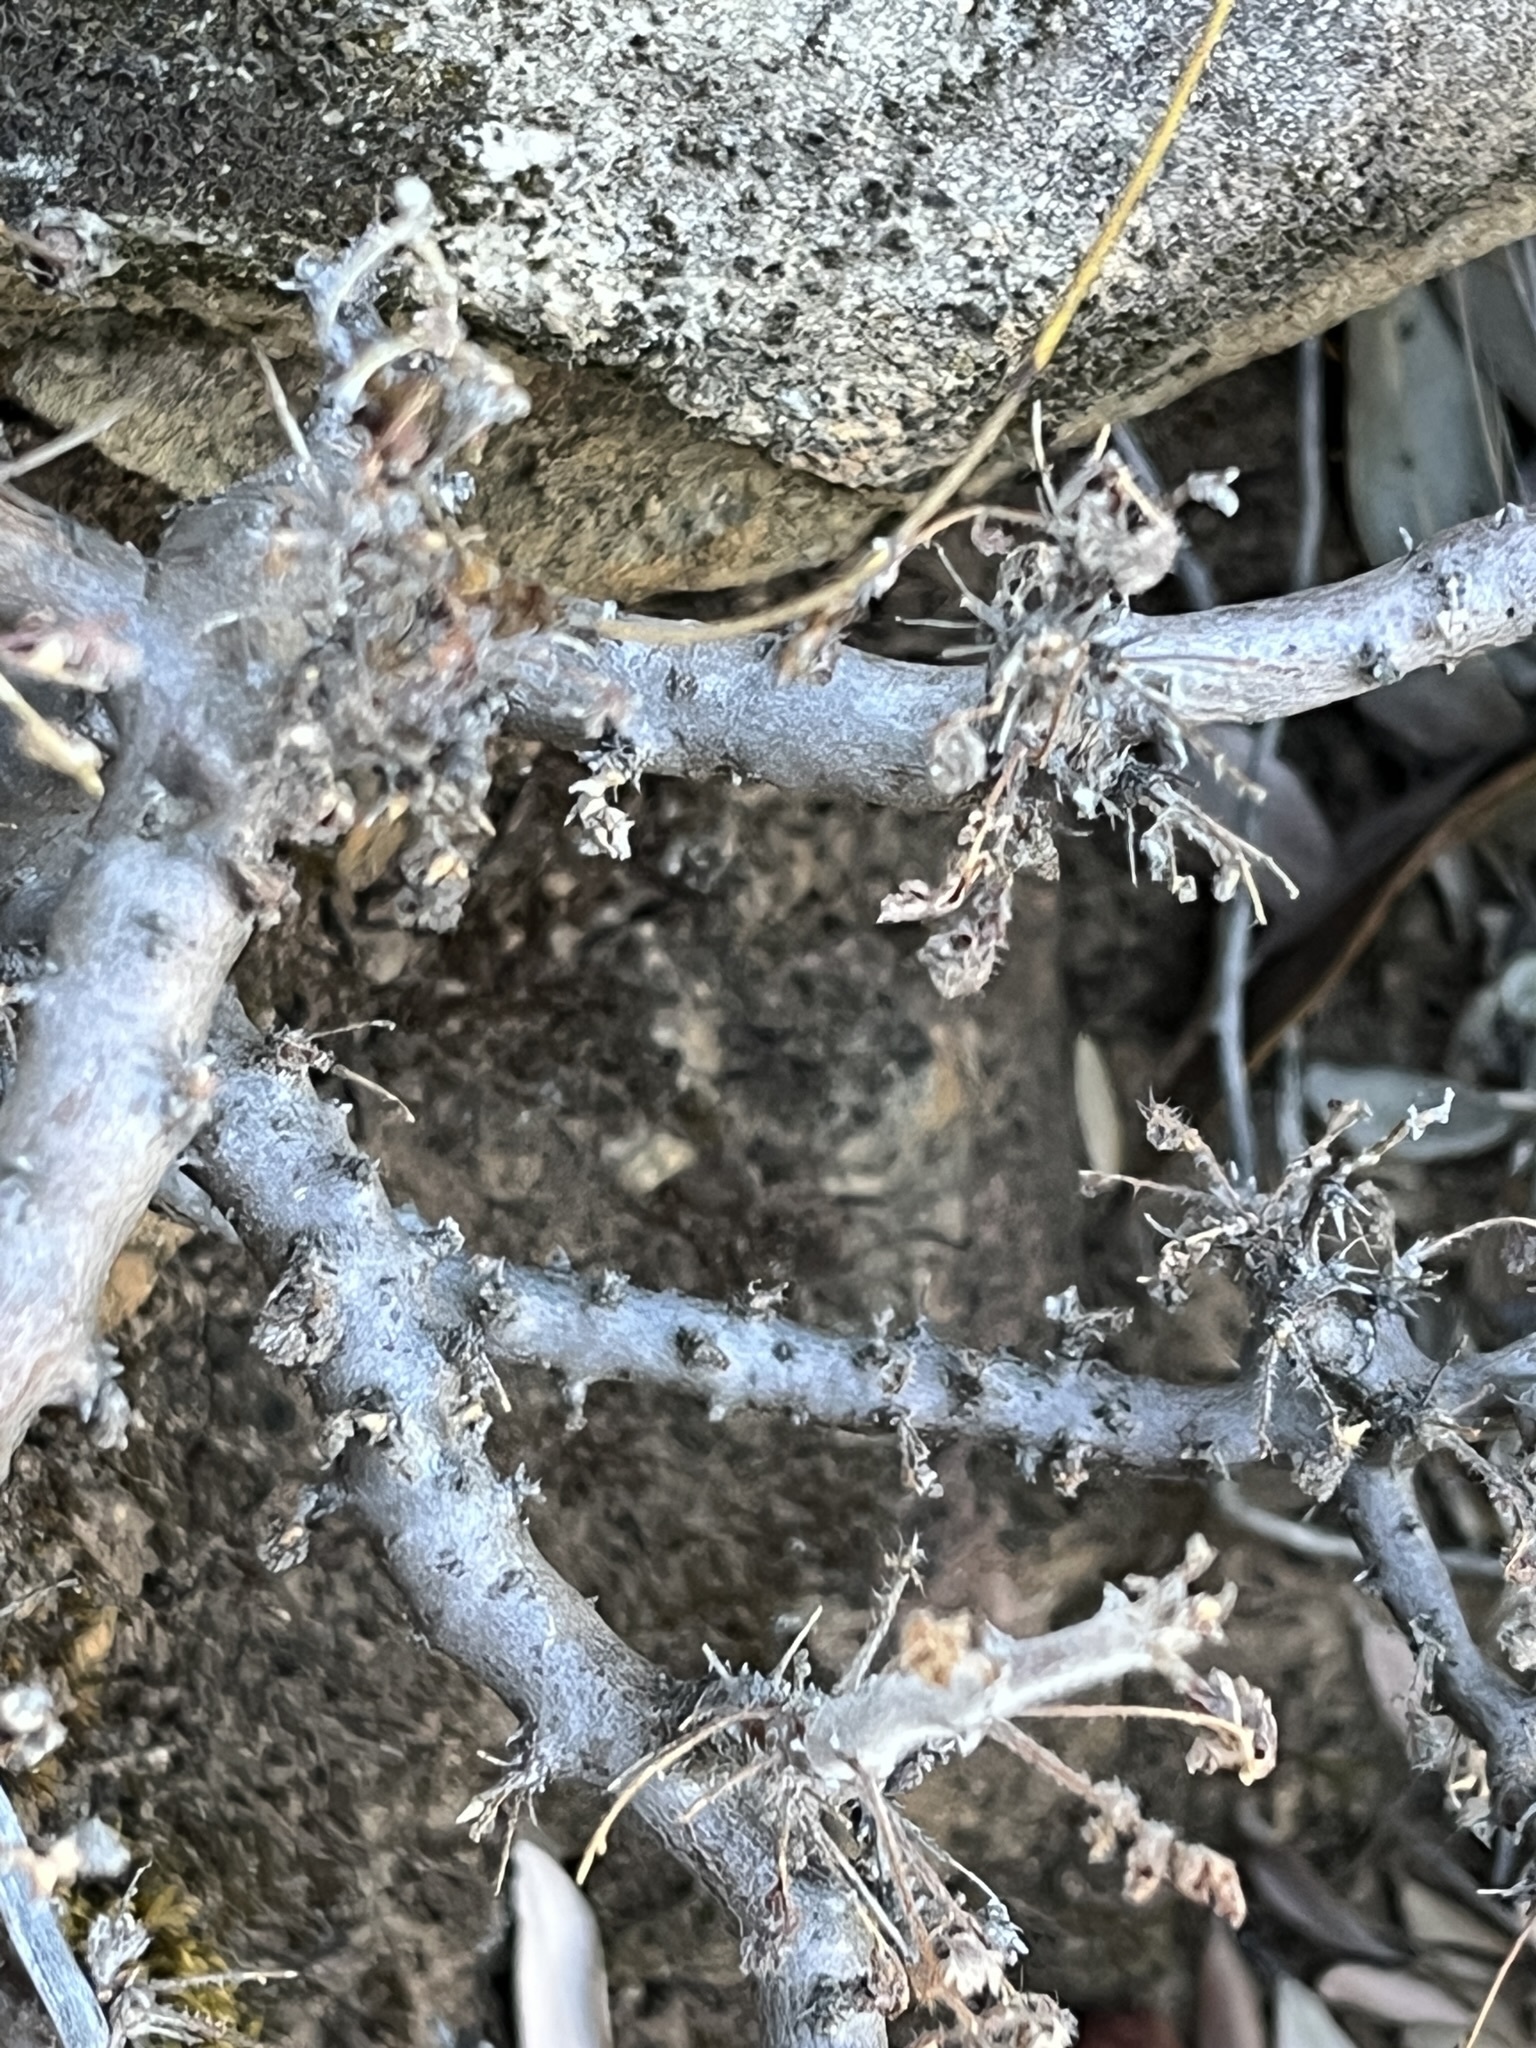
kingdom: Plantae
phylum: Tracheophyta
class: Magnoliopsida
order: Geraniales
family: Geraniaceae
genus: Pelargonium
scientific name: Pelargonium alternans
